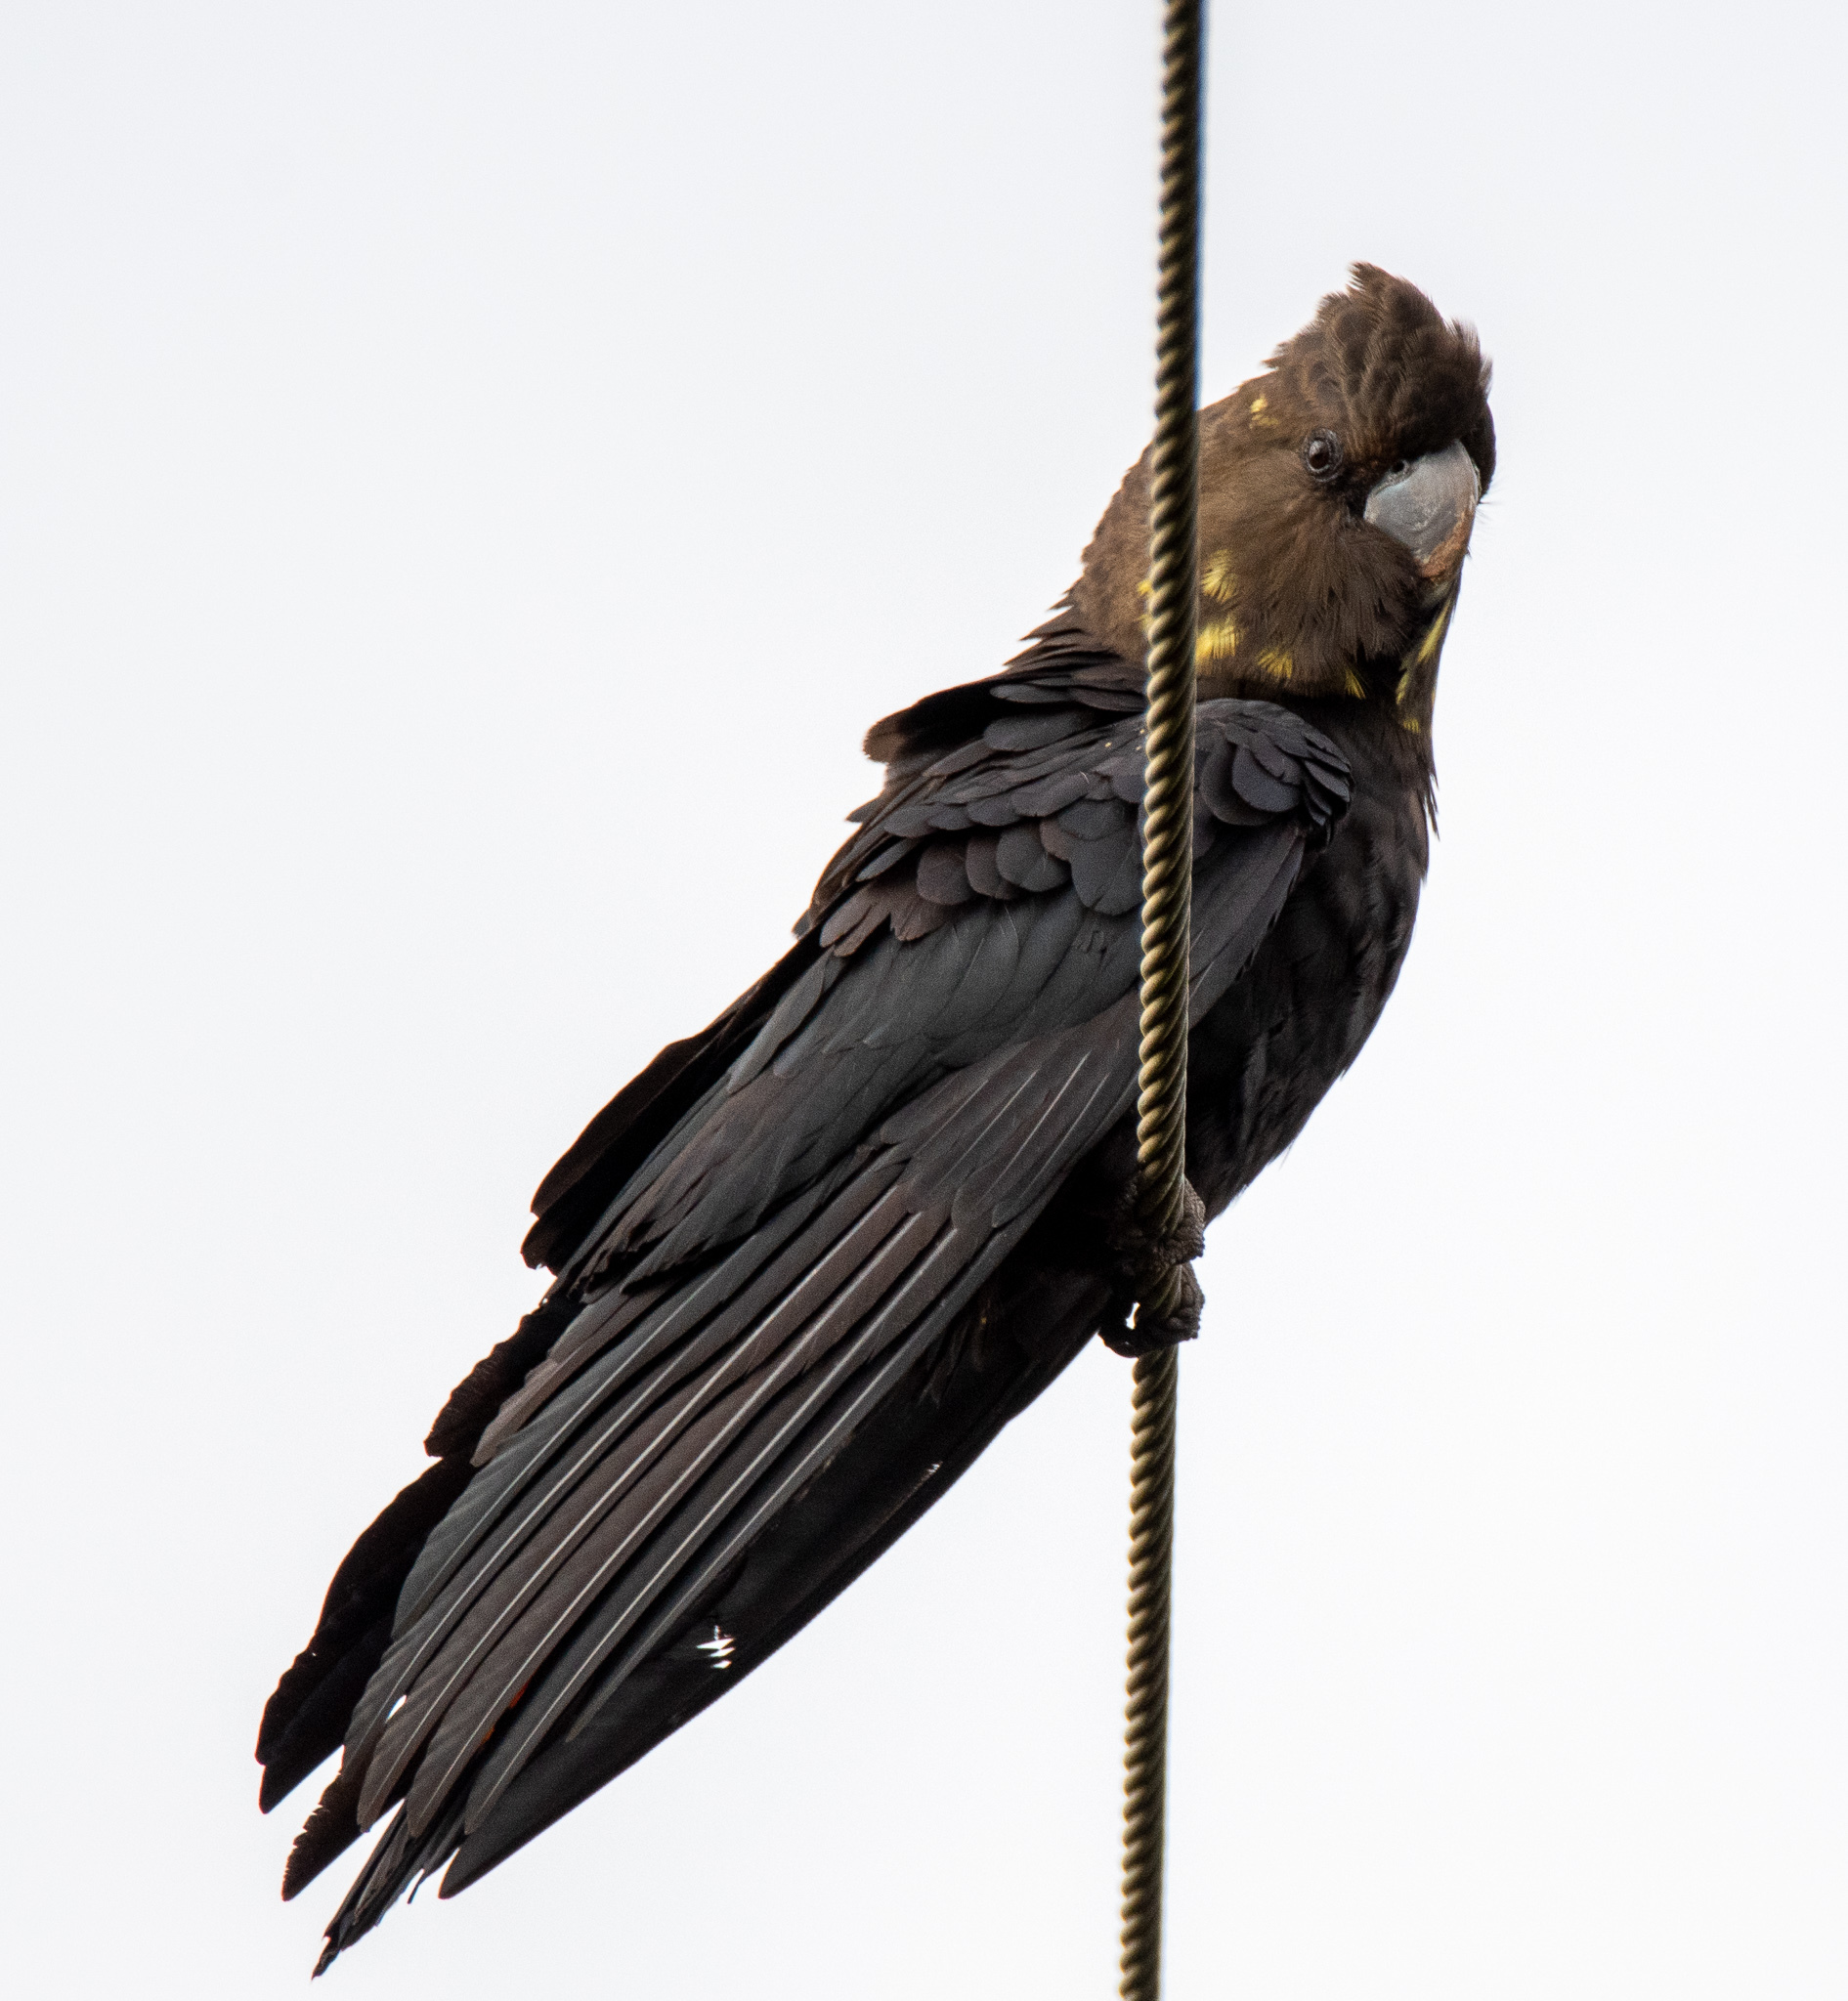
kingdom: Animalia
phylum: Chordata
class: Aves
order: Psittaciformes
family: Psittacidae
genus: Calyptorhynchus
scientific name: Calyptorhynchus lathami
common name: Glossy black cockatoo
